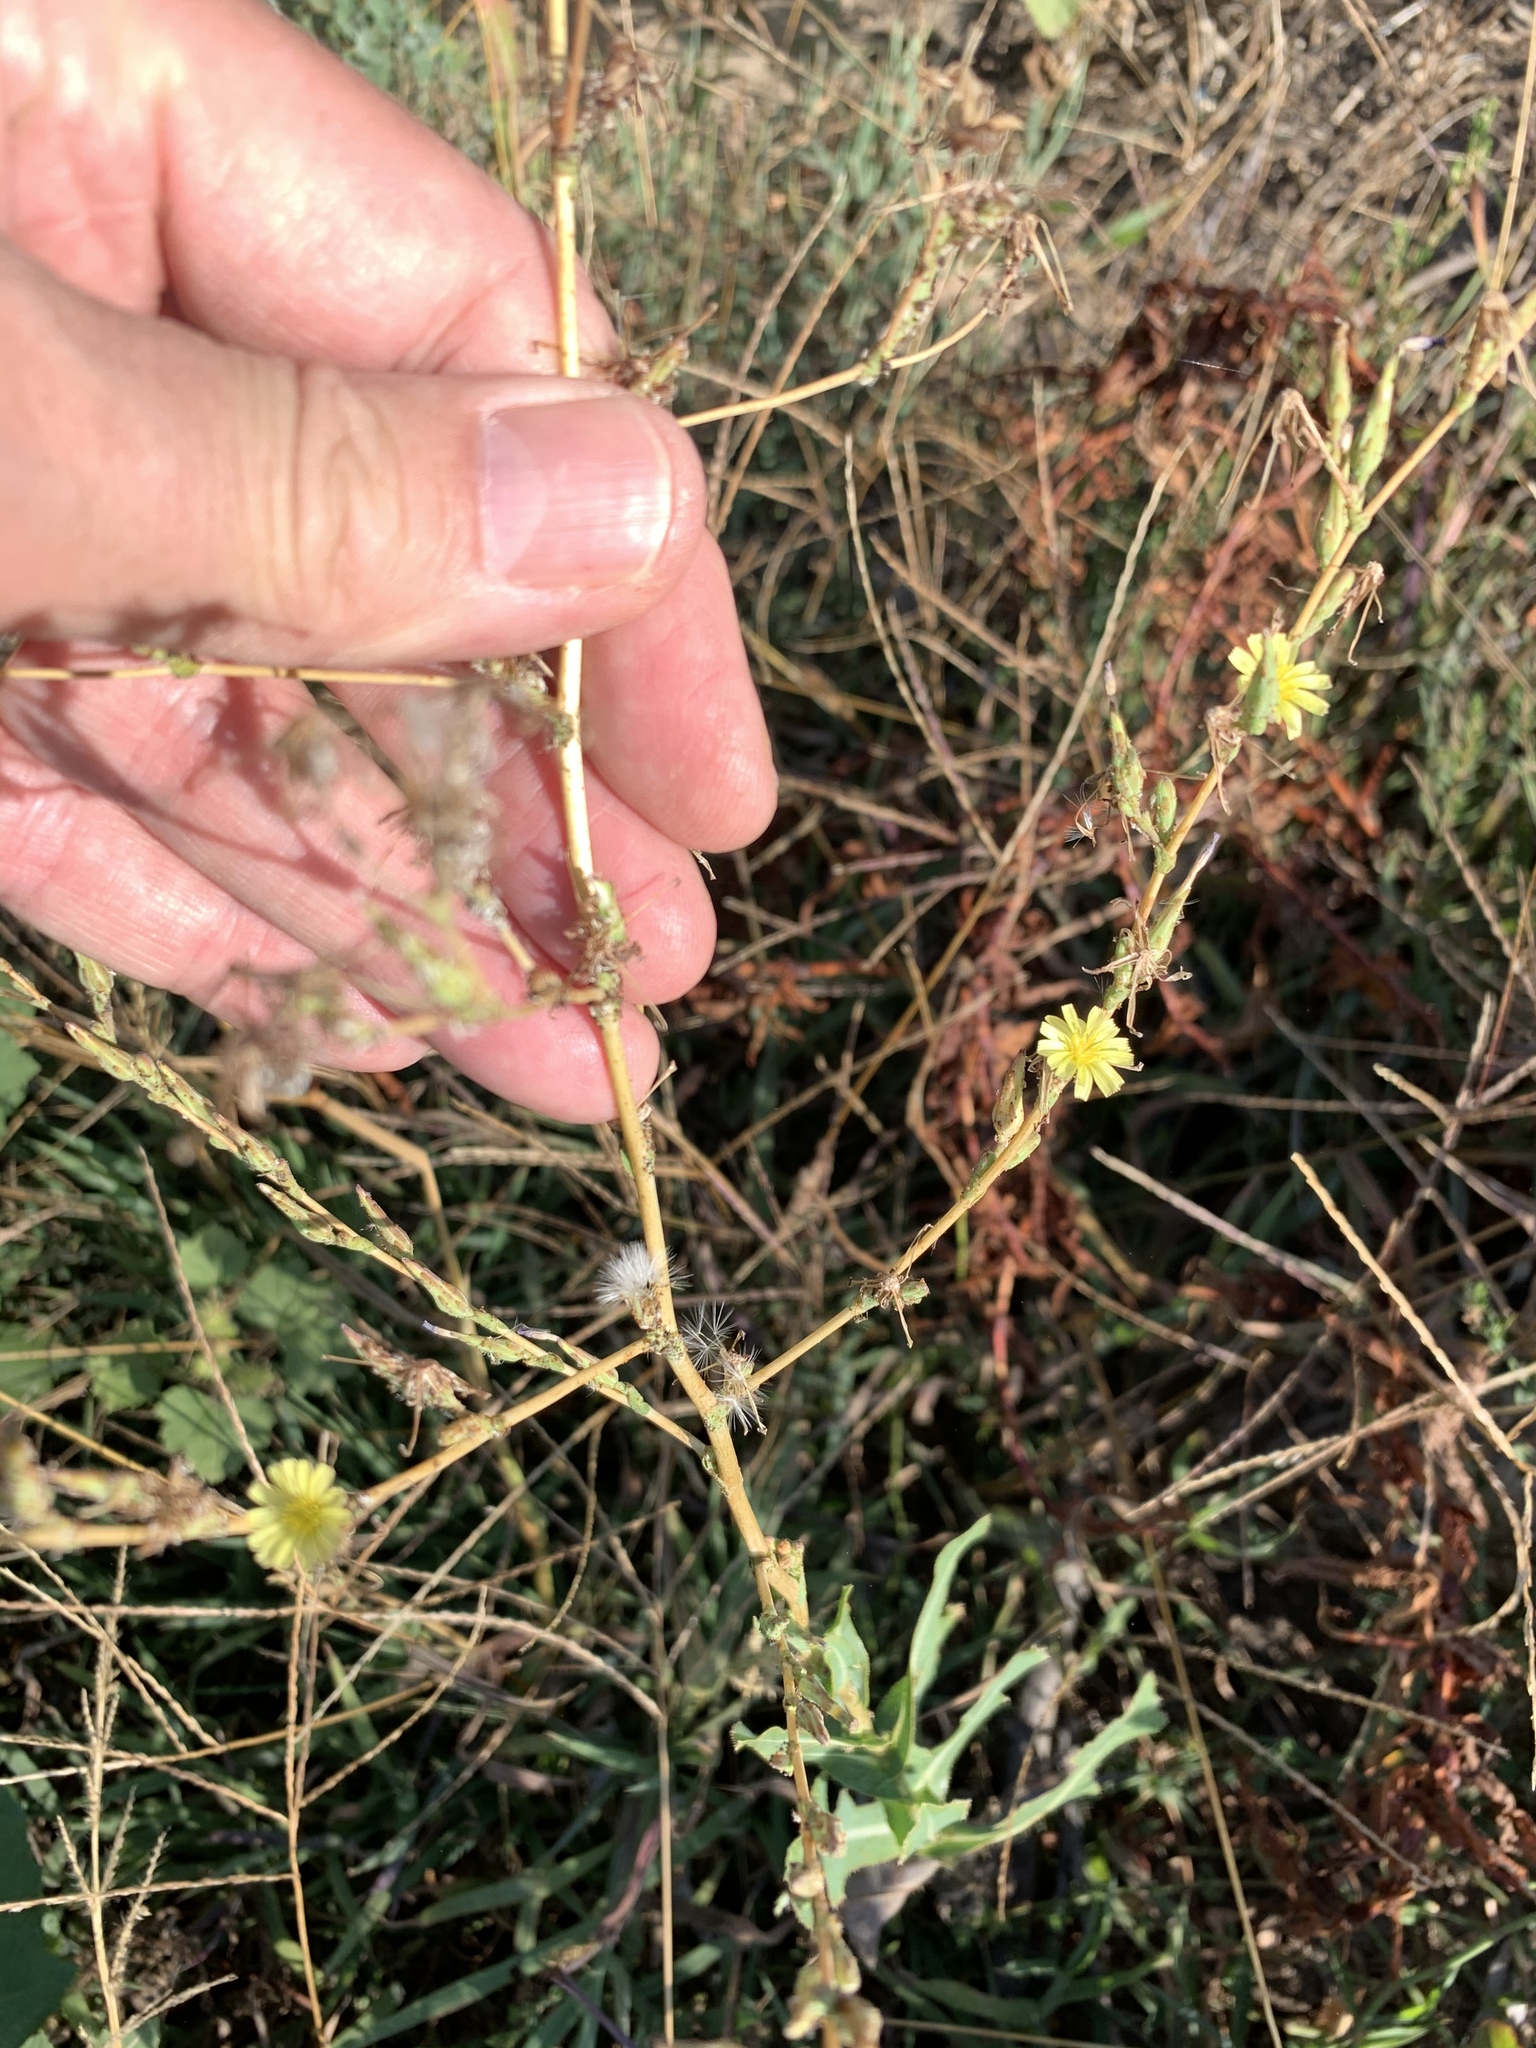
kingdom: Plantae
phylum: Tracheophyta
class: Magnoliopsida
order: Asterales
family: Asteraceae
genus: Lactuca
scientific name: Lactuca serriola
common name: Prickly lettuce
